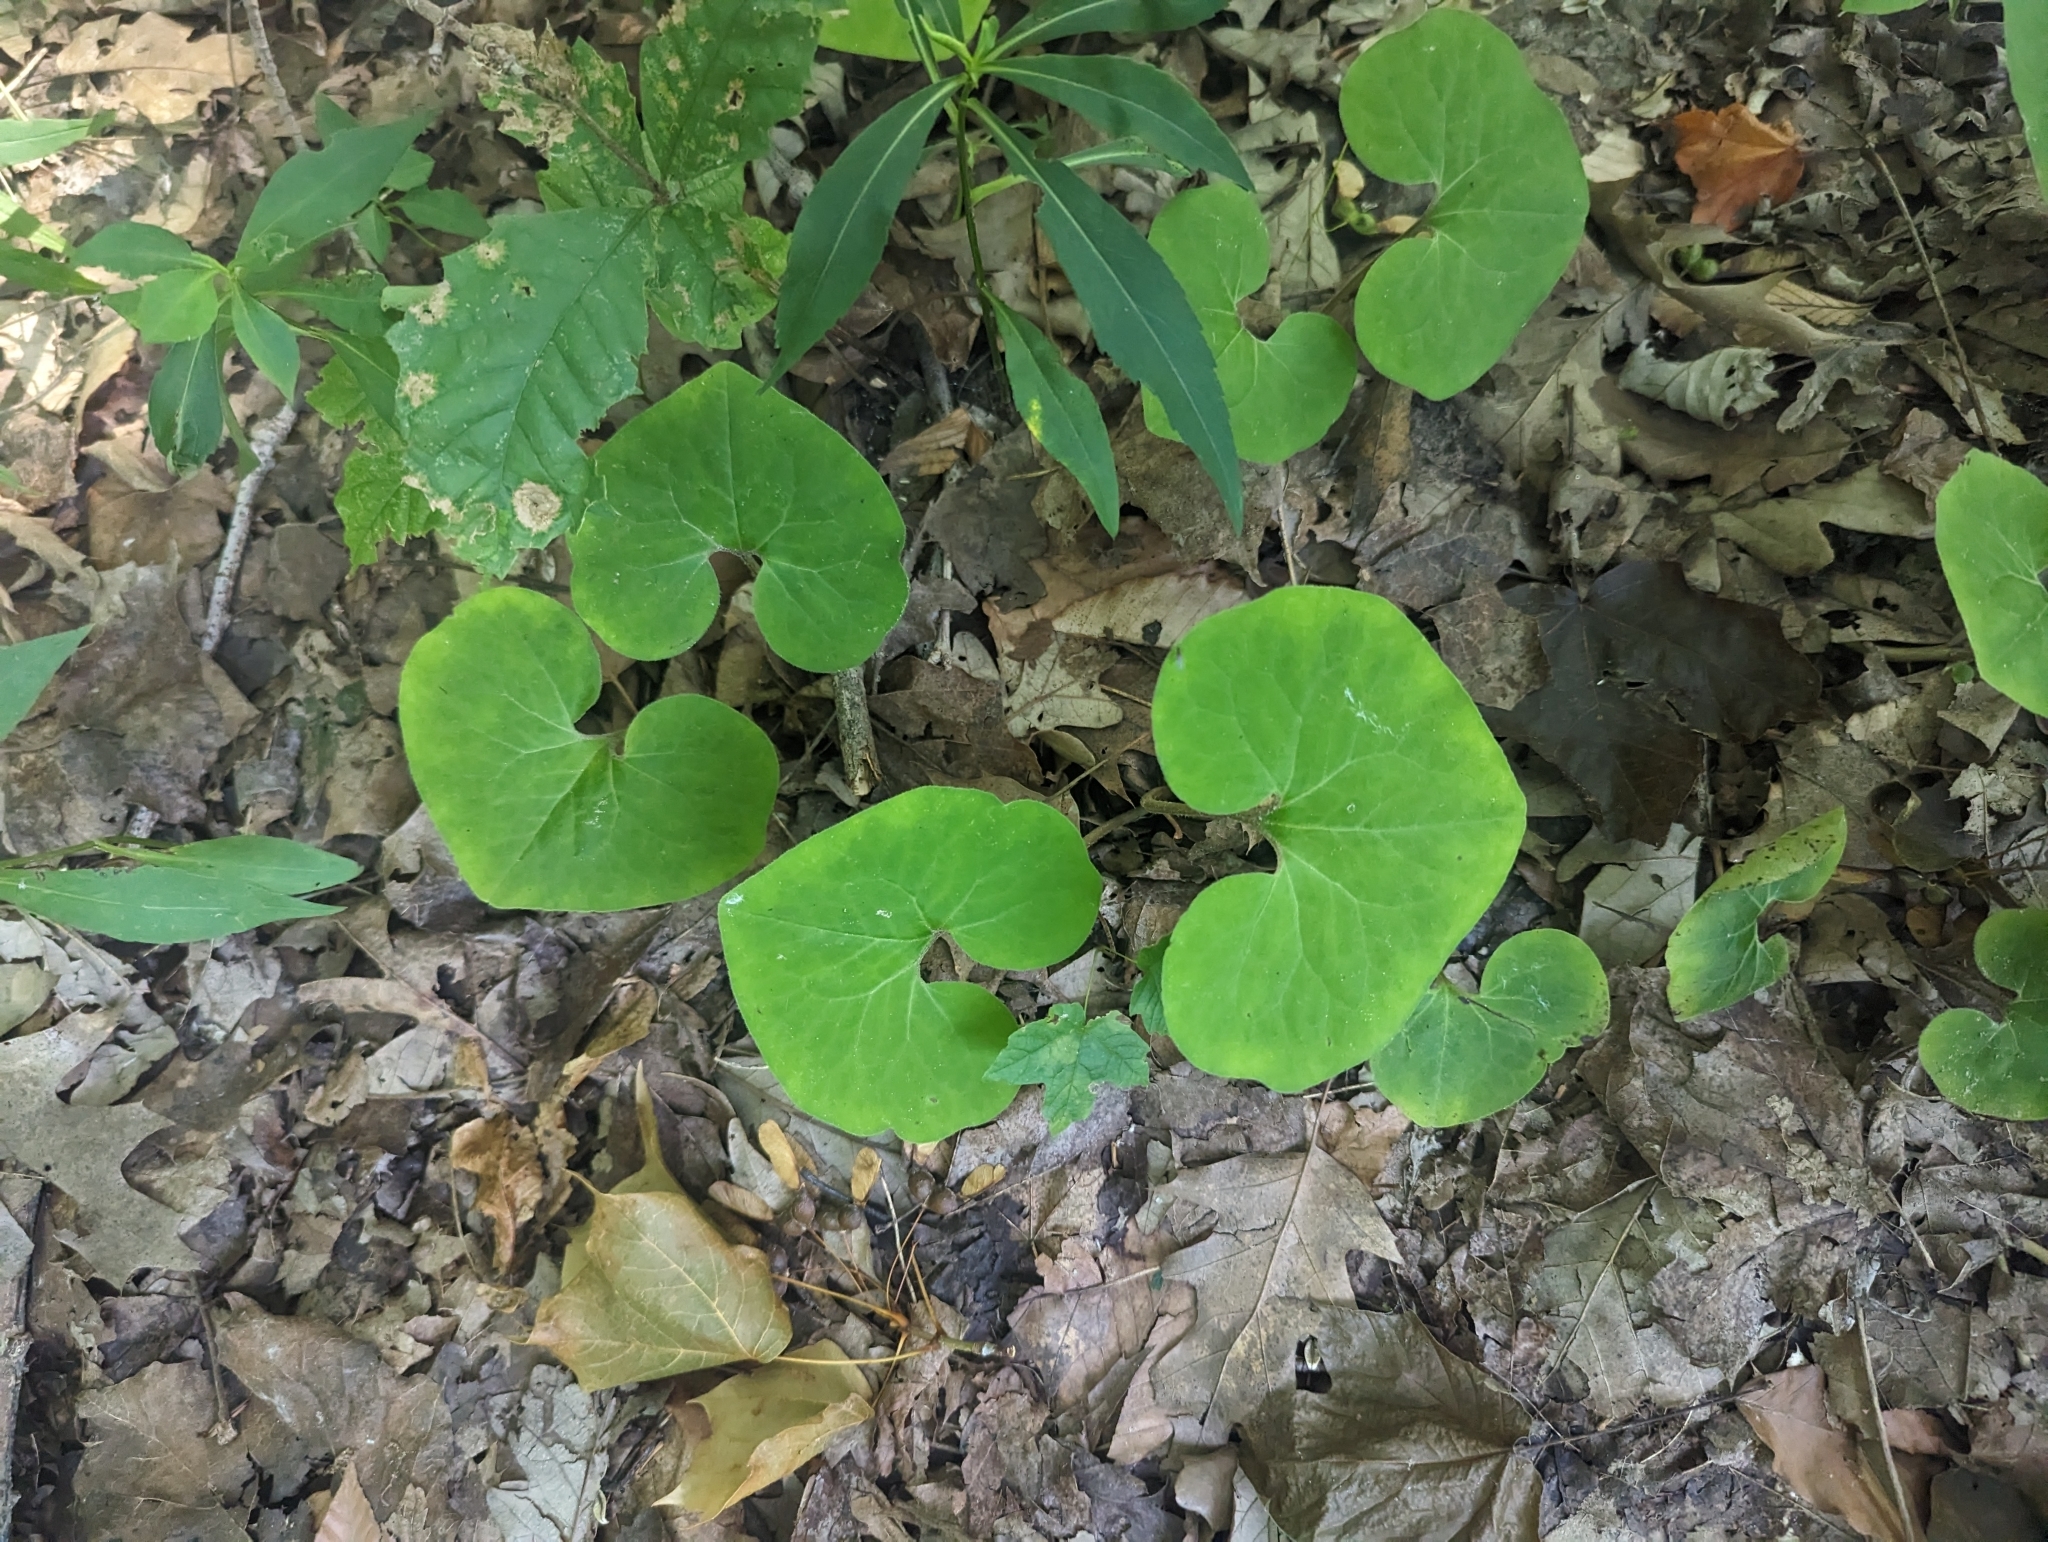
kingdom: Plantae
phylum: Tracheophyta
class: Magnoliopsida
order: Piperales
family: Aristolochiaceae
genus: Asarum
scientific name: Asarum canadense
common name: Wild ginger
